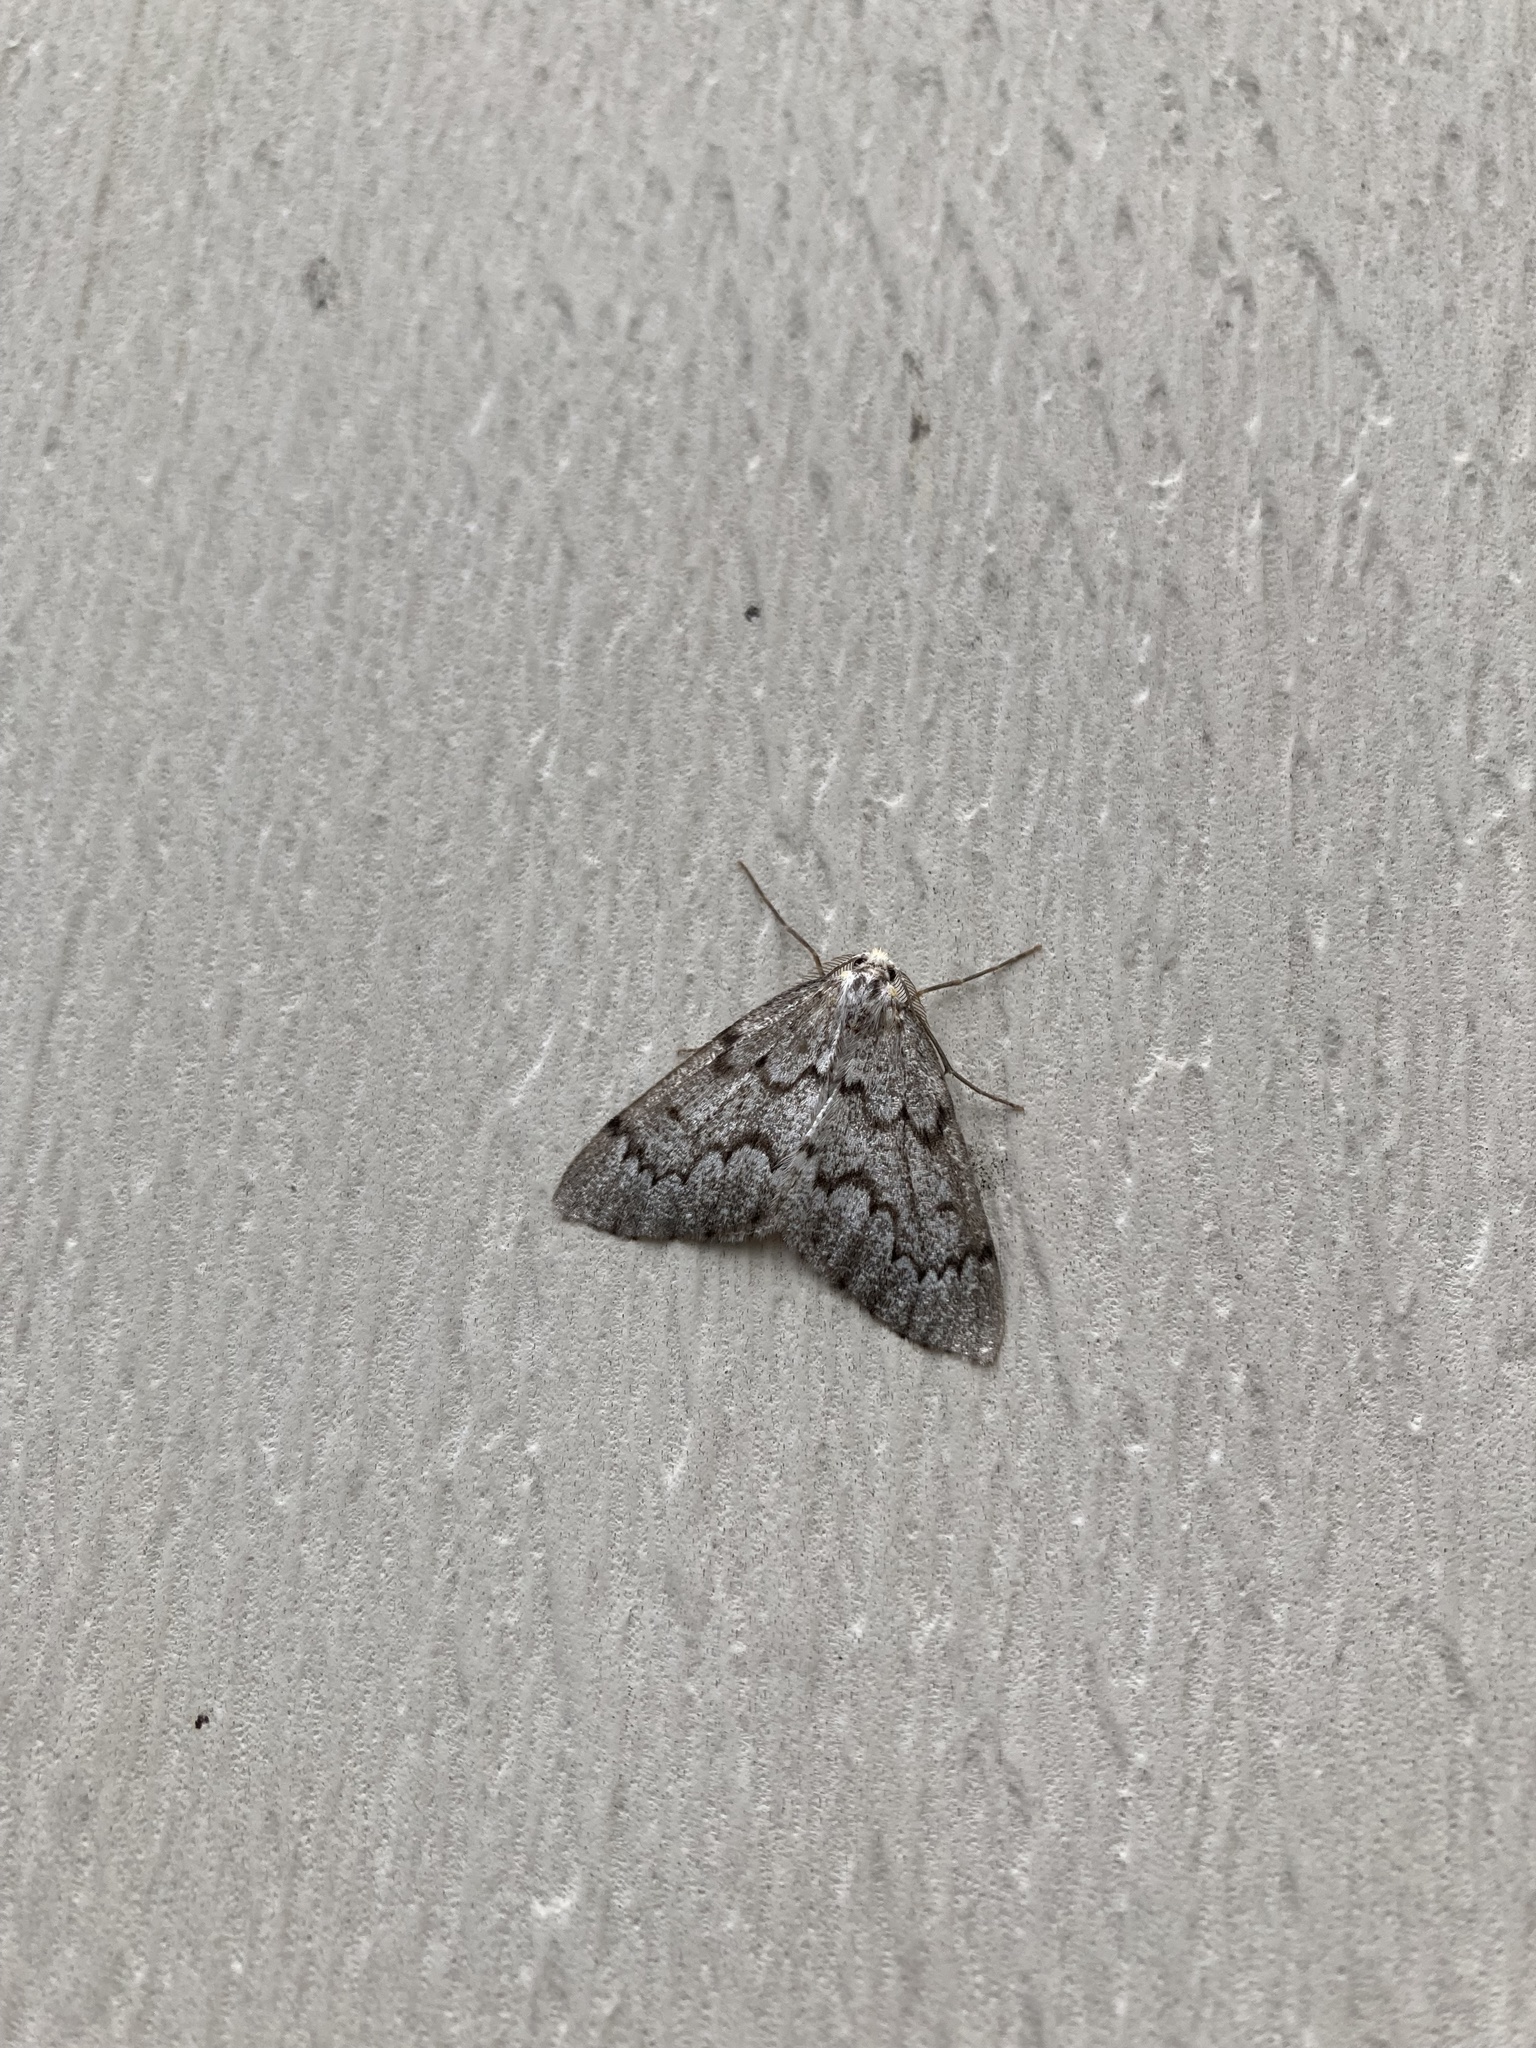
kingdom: Animalia
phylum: Arthropoda
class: Insecta
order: Lepidoptera
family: Geometridae
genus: Nepytia
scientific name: Nepytia canosaria
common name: False hemlock looper
